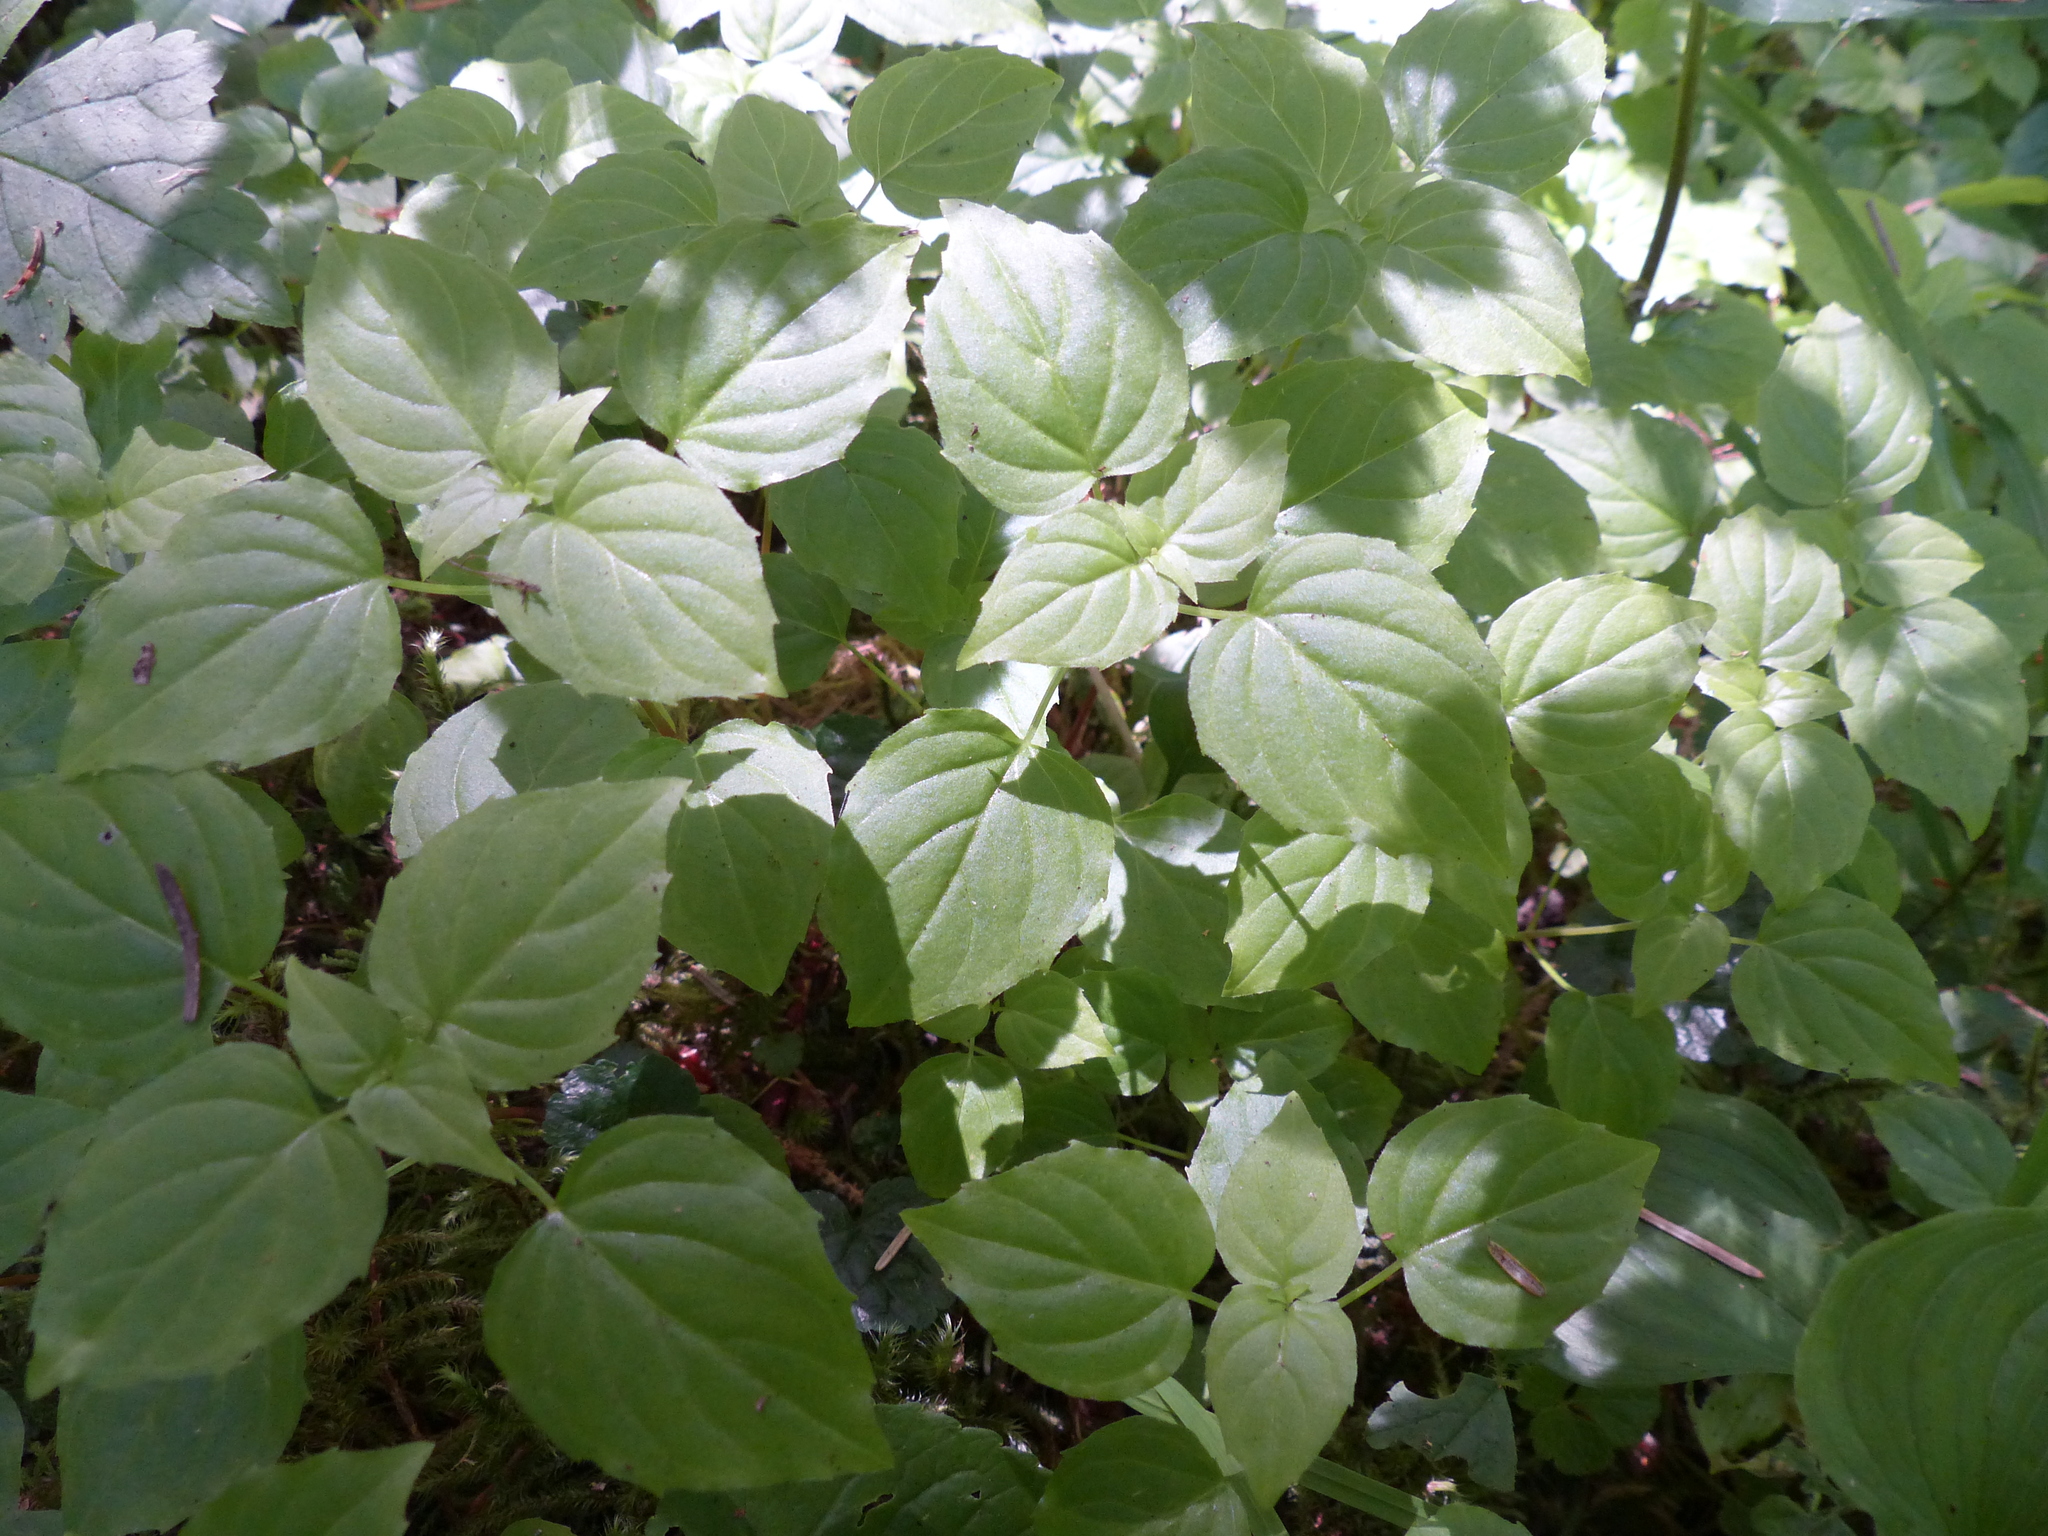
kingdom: Plantae
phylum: Tracheophyta
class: Magnoliopsida
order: Myrtales
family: Onagraceae
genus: Circaea
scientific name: Circaea alpina
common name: Alpine enchanter's-nightshade
